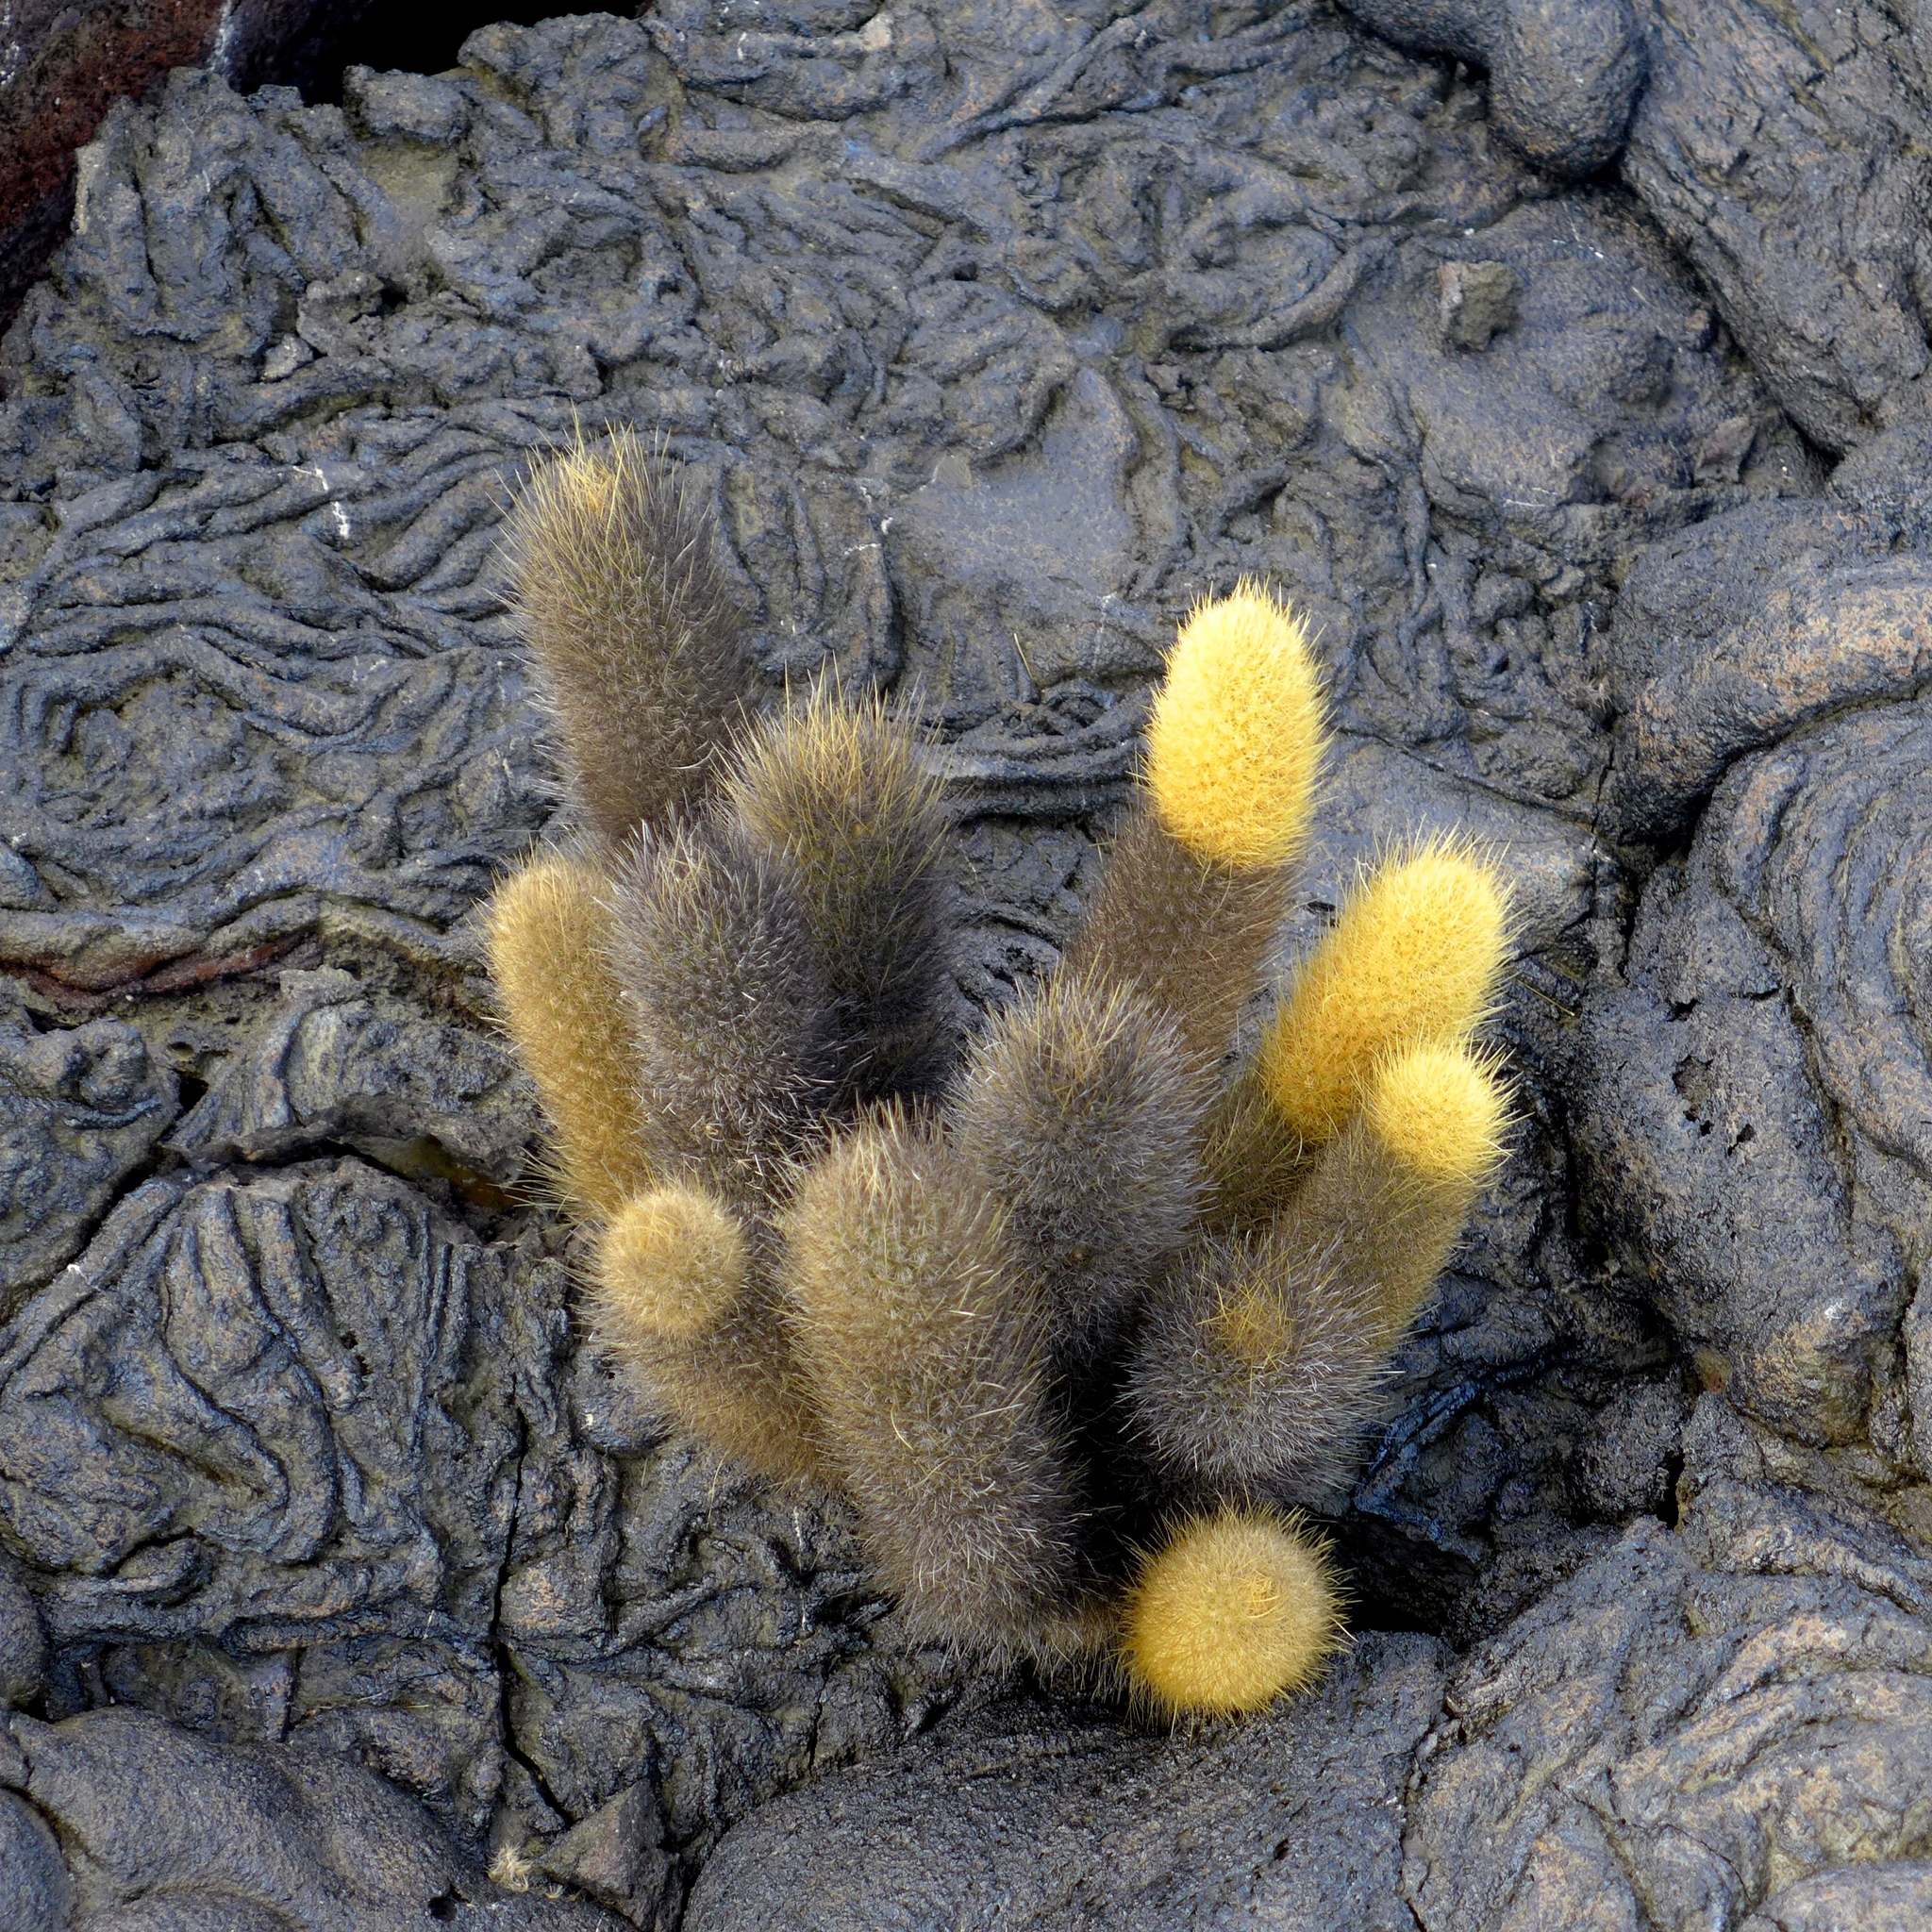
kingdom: Plantae
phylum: Tracheophyta
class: Magnoliopsida
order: Caryophyllales
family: Cactaceae
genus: Brachycereus
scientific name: Brachycereus nesioticus
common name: Lava cactus
